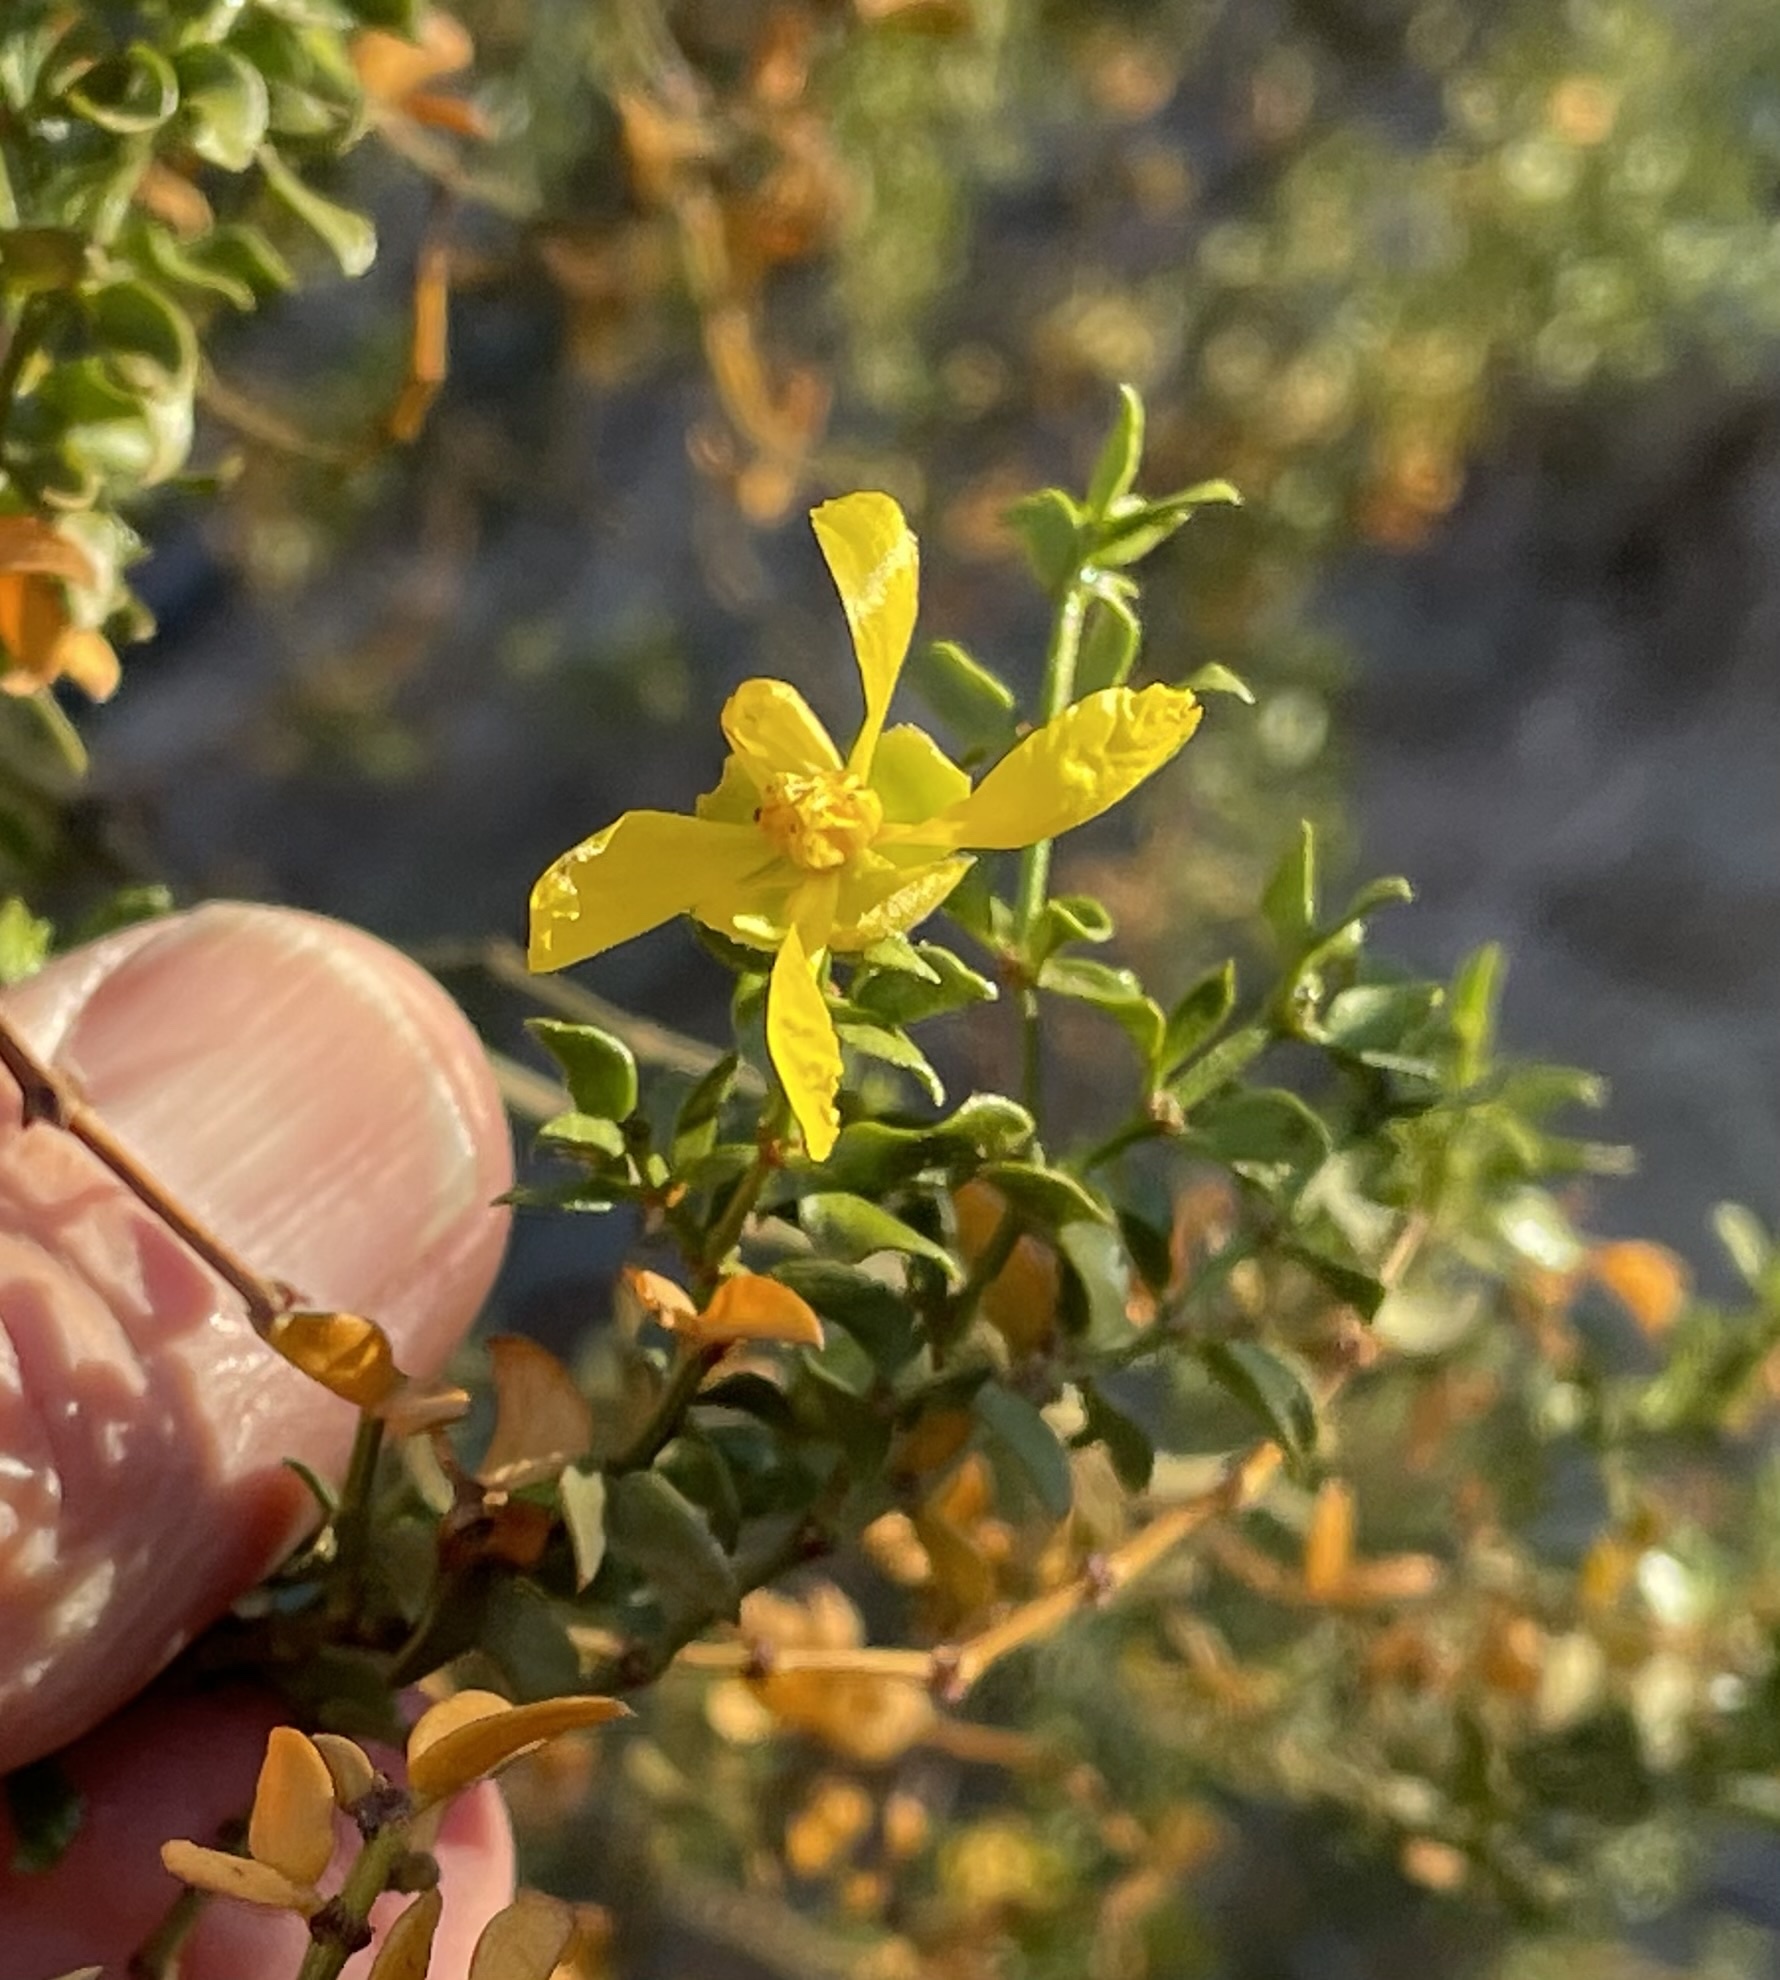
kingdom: Plantae
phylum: Tracheophyta
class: Magnoliopsida
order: Zygophyllales
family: Zygophyllaceae
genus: Larrea
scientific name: Larrea tridentata
